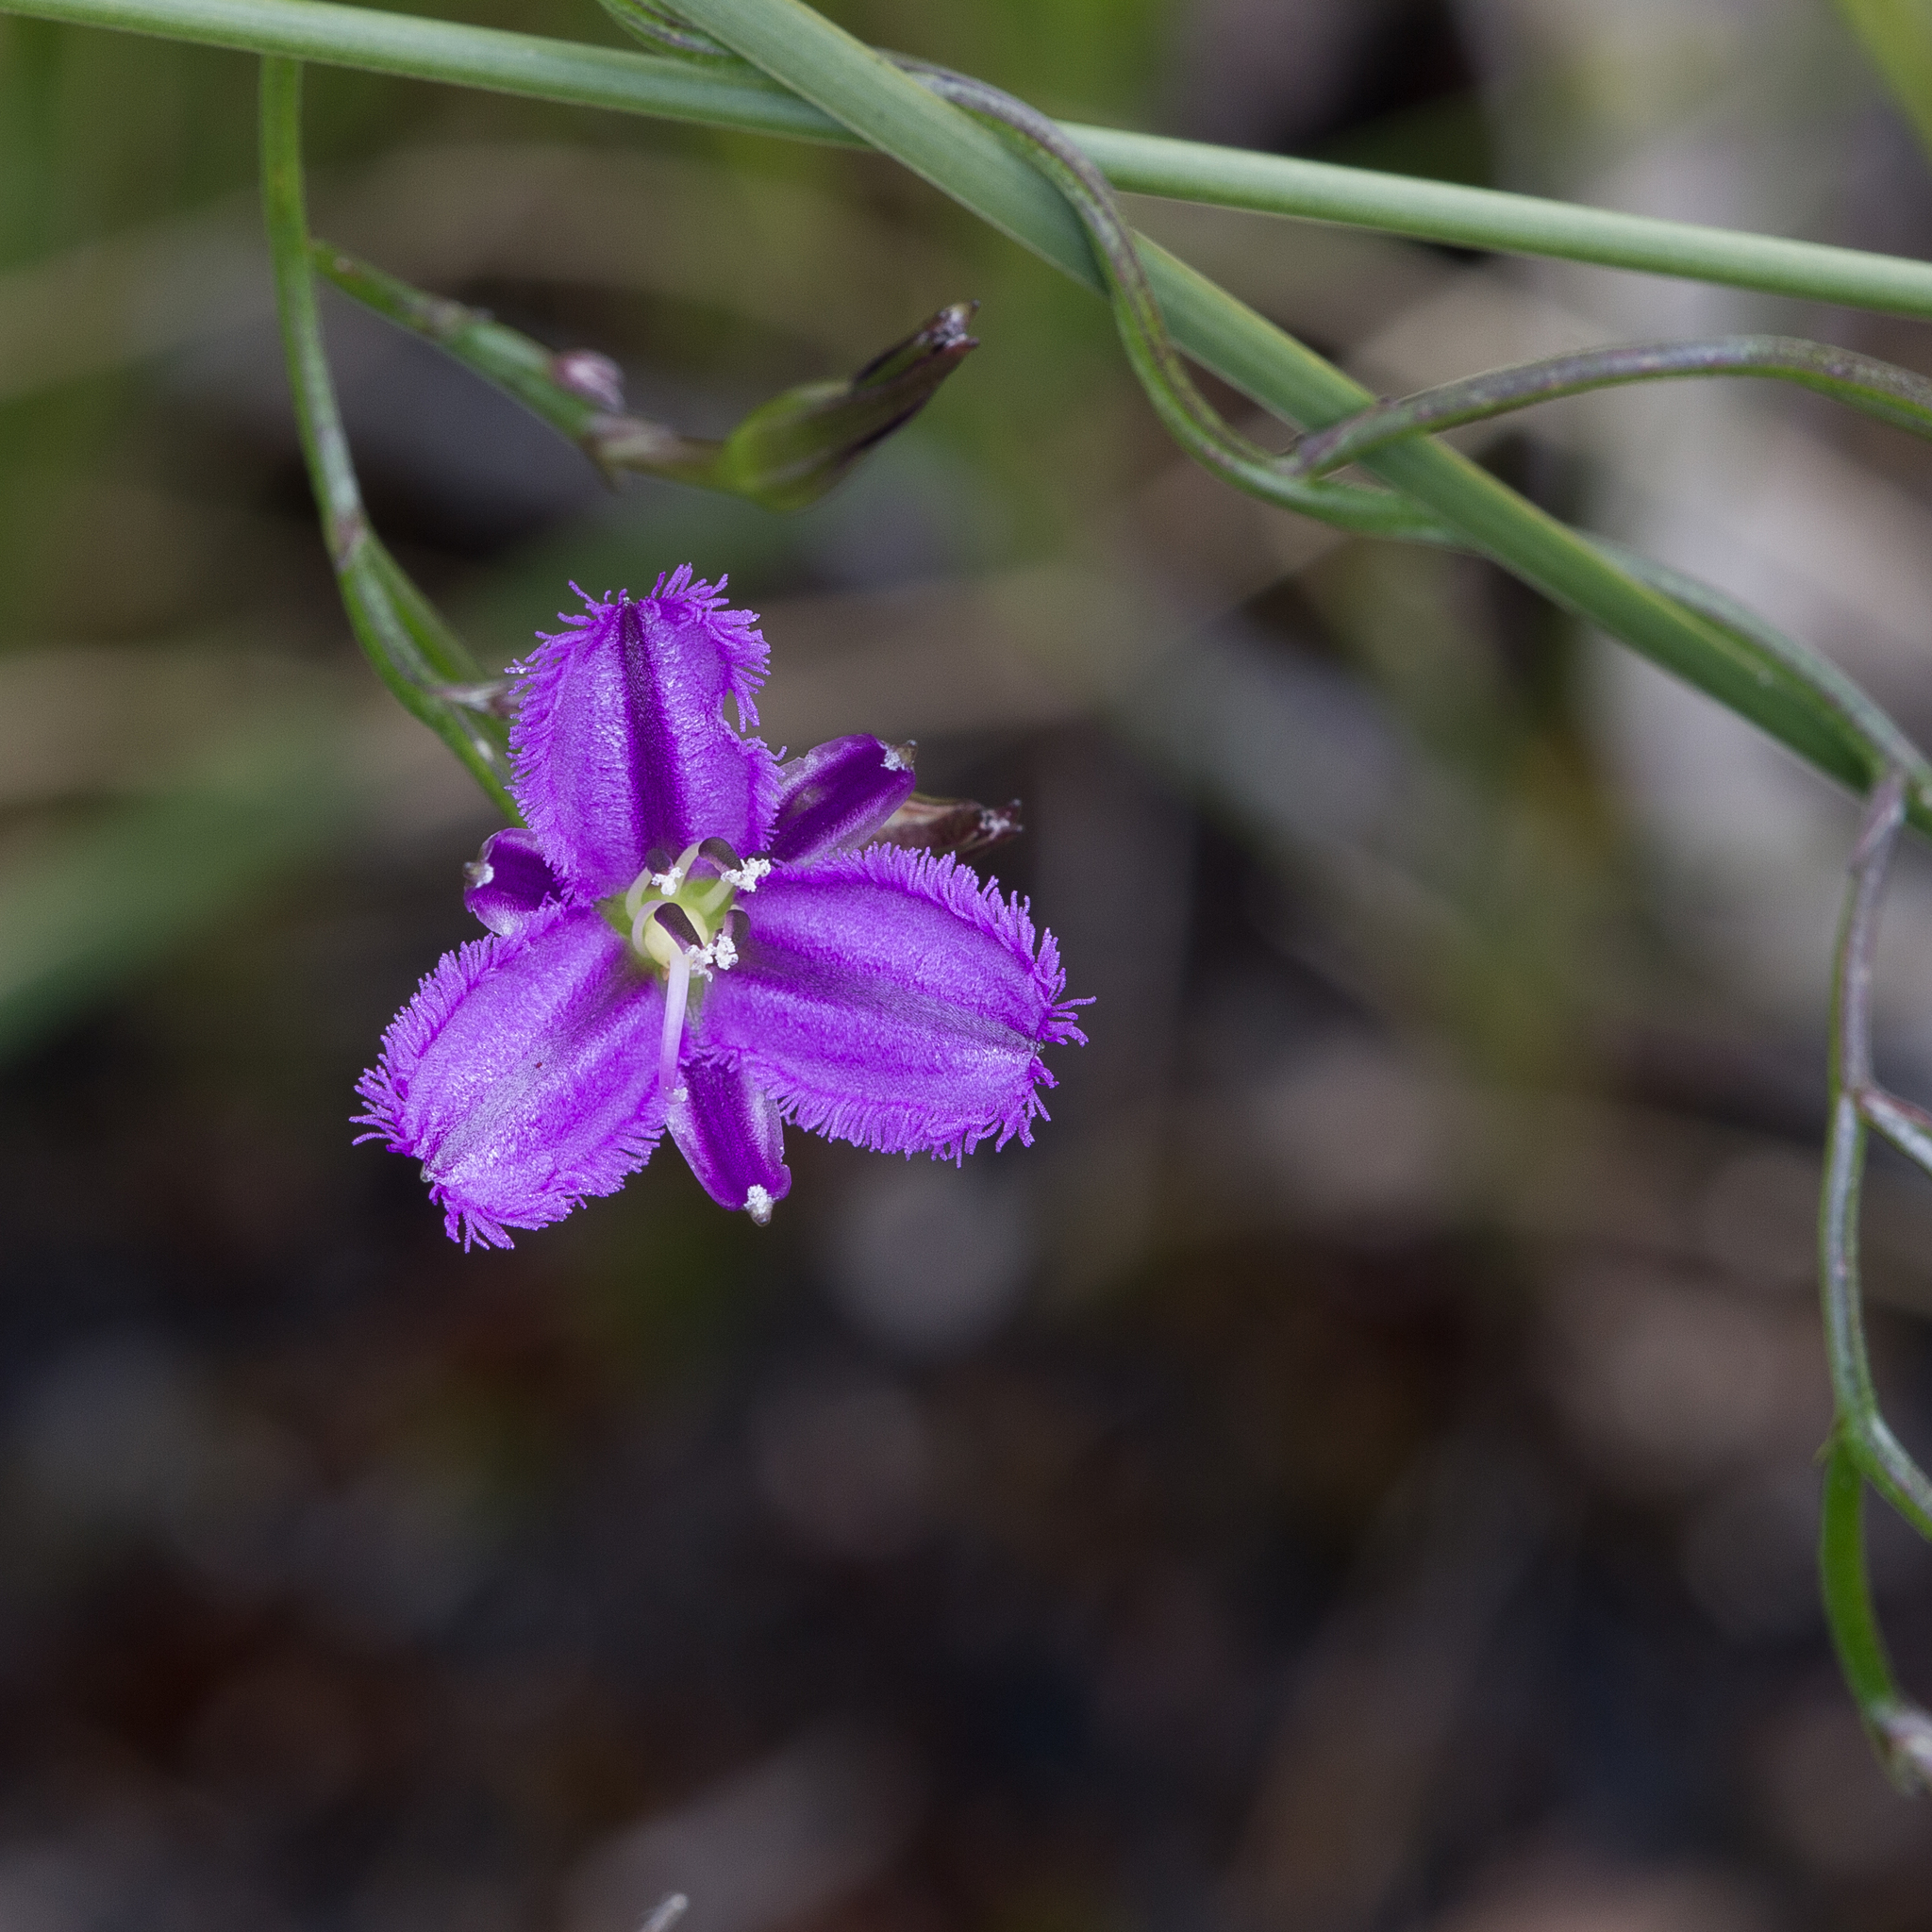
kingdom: Plantae
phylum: Tracheophyta
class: Liliopsida
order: Asparagales
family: Asparagaceae
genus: Thysanotus
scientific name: Thysanotus patersonii
